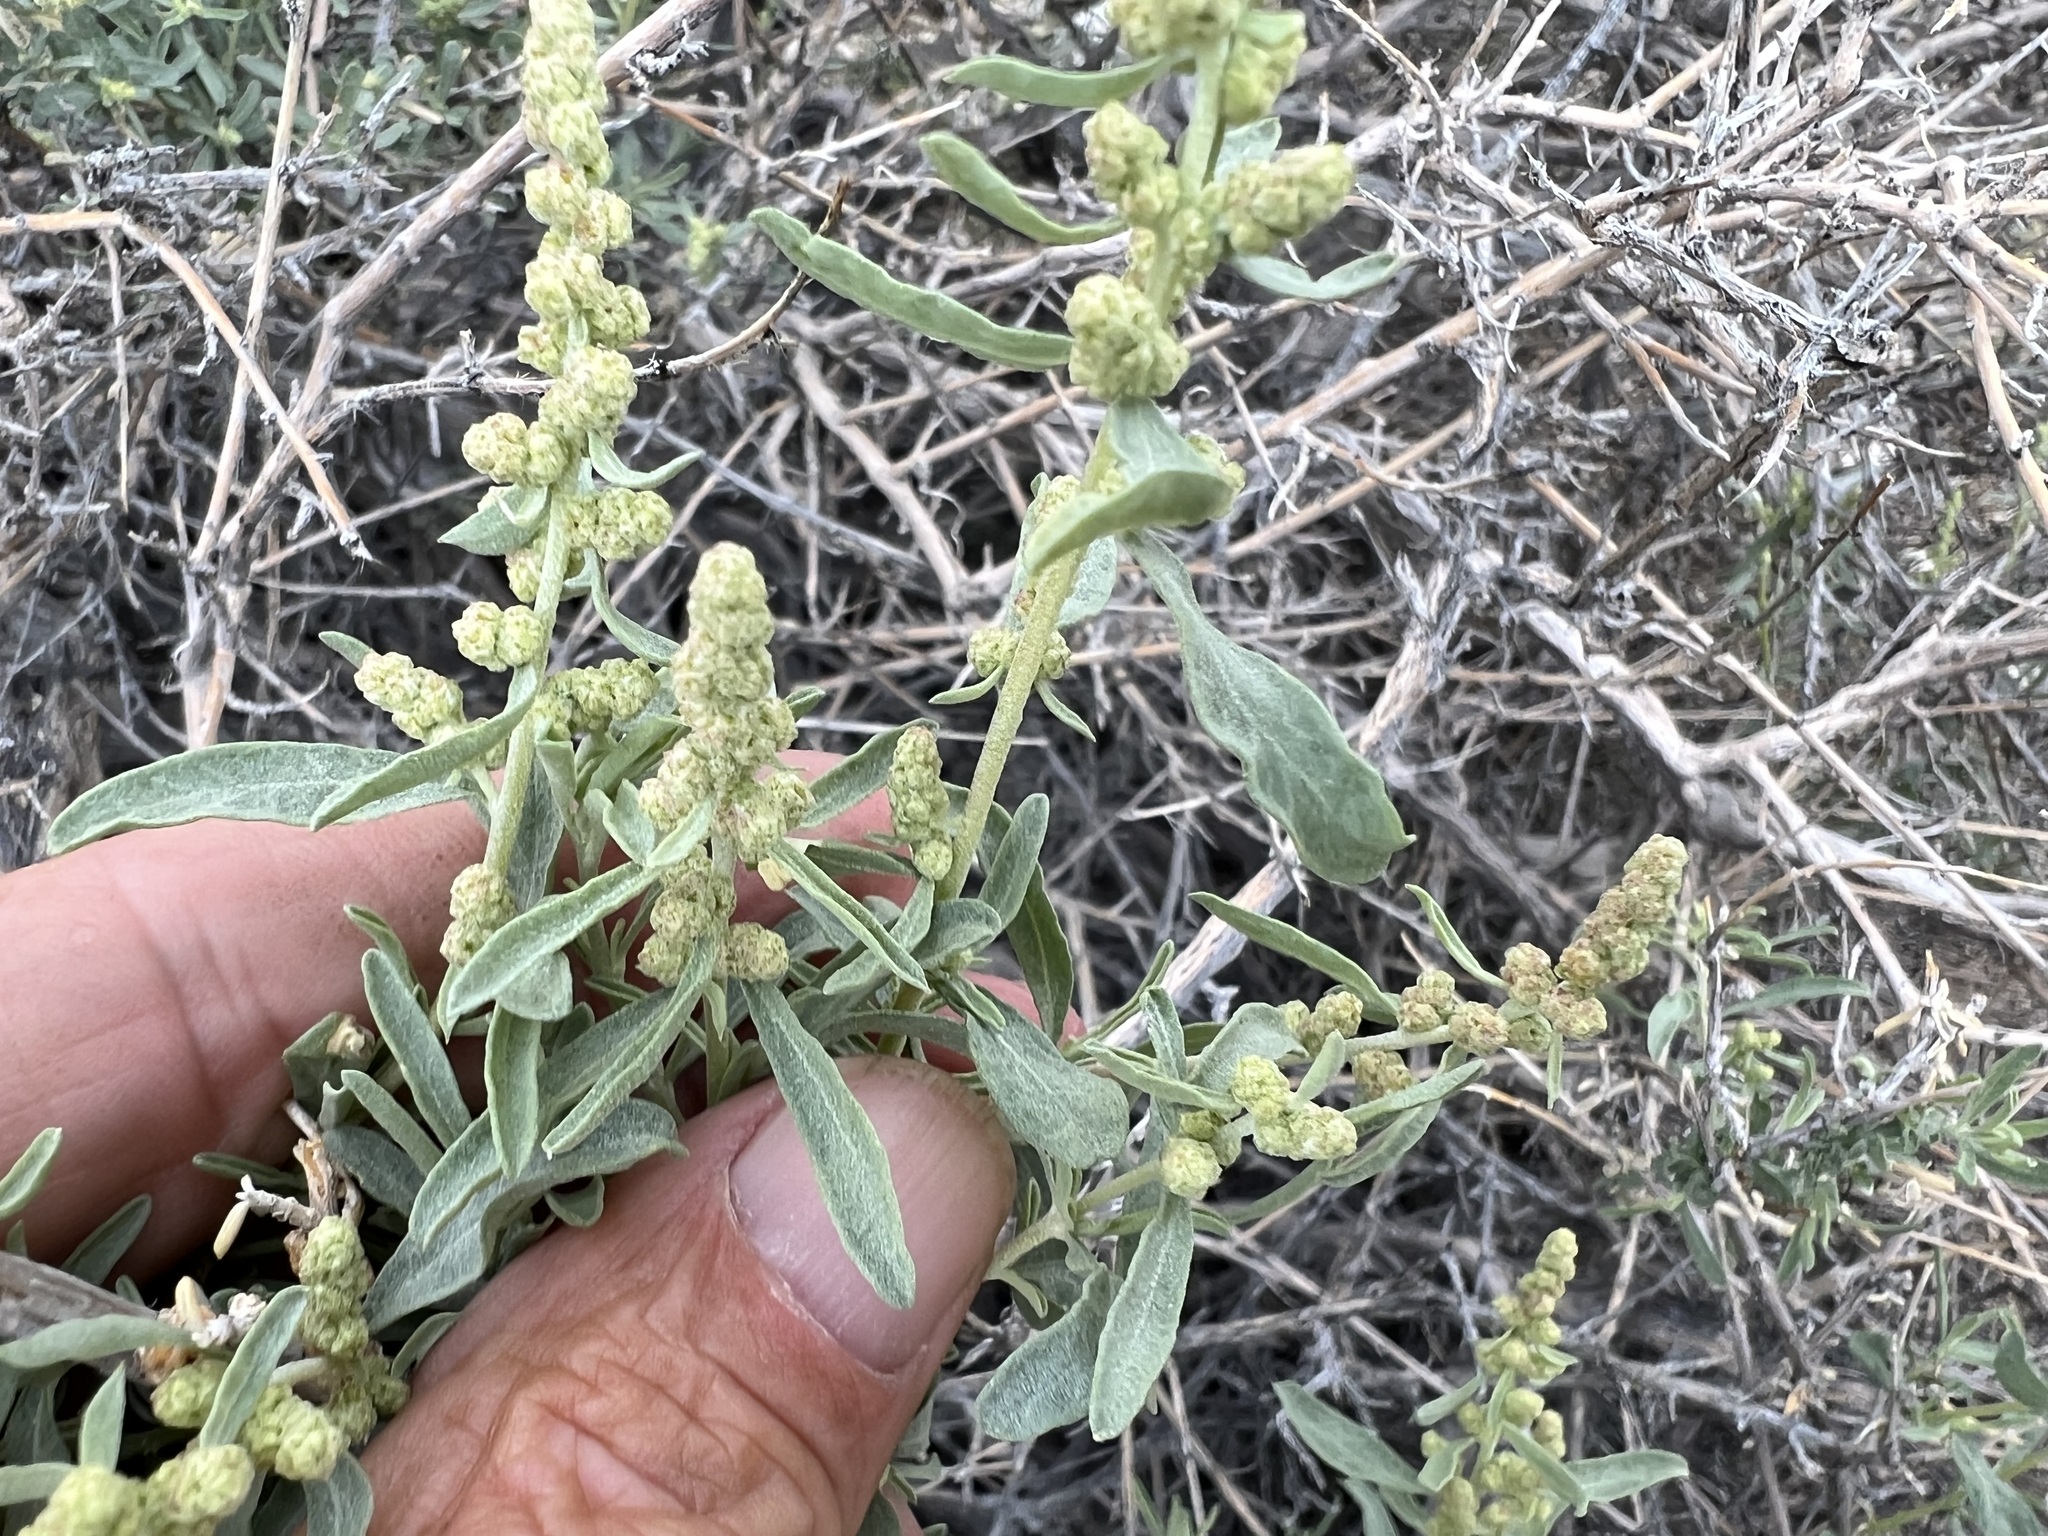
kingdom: Plantae
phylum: Tracheophyta
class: Magnoliopsida
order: Caryophyllales
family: Amaranthaceae
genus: Atriplex
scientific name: Atriplex canescens
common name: Four-wing saltbush
